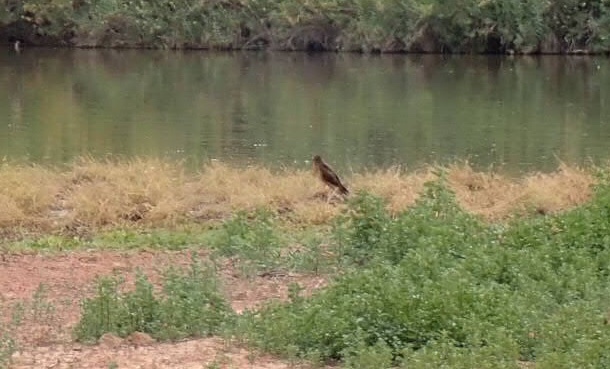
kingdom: Animalia
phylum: Chordata
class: Aves
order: Accipitriformes
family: Accipitridae
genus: Circus
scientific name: Circus cyaneus
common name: Hen harrier
